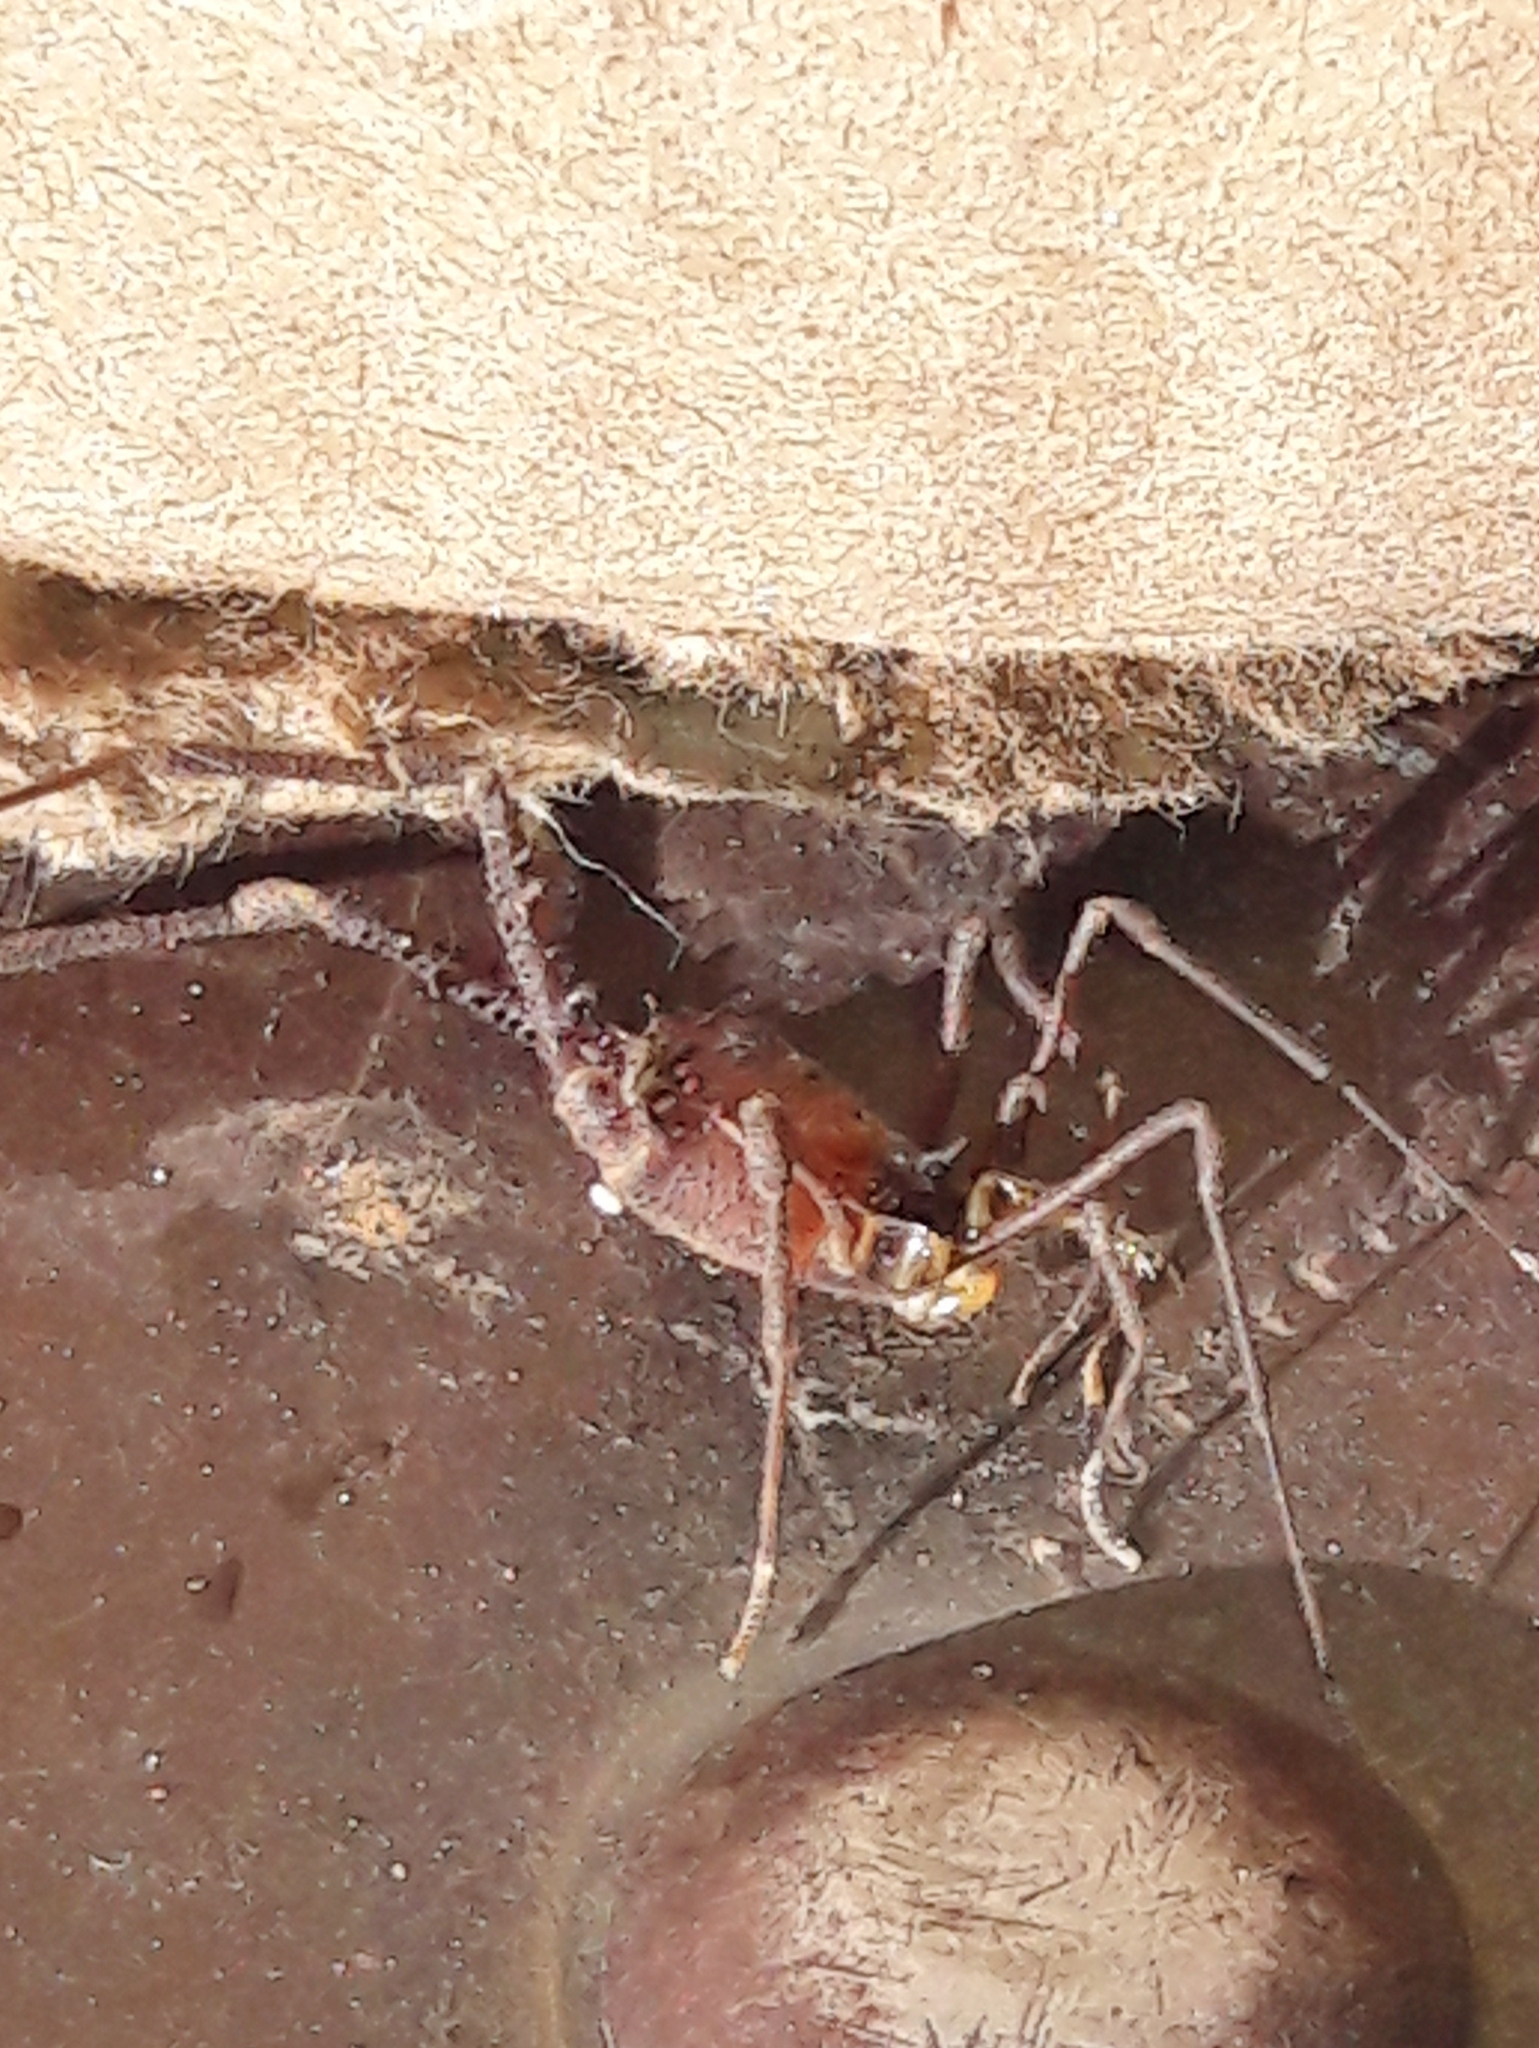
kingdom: Animalia
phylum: Arthropoda
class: Arachnida
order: Opiliones
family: Gonyleptidae
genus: Mischonyx
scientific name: Mischonyx squalidus
